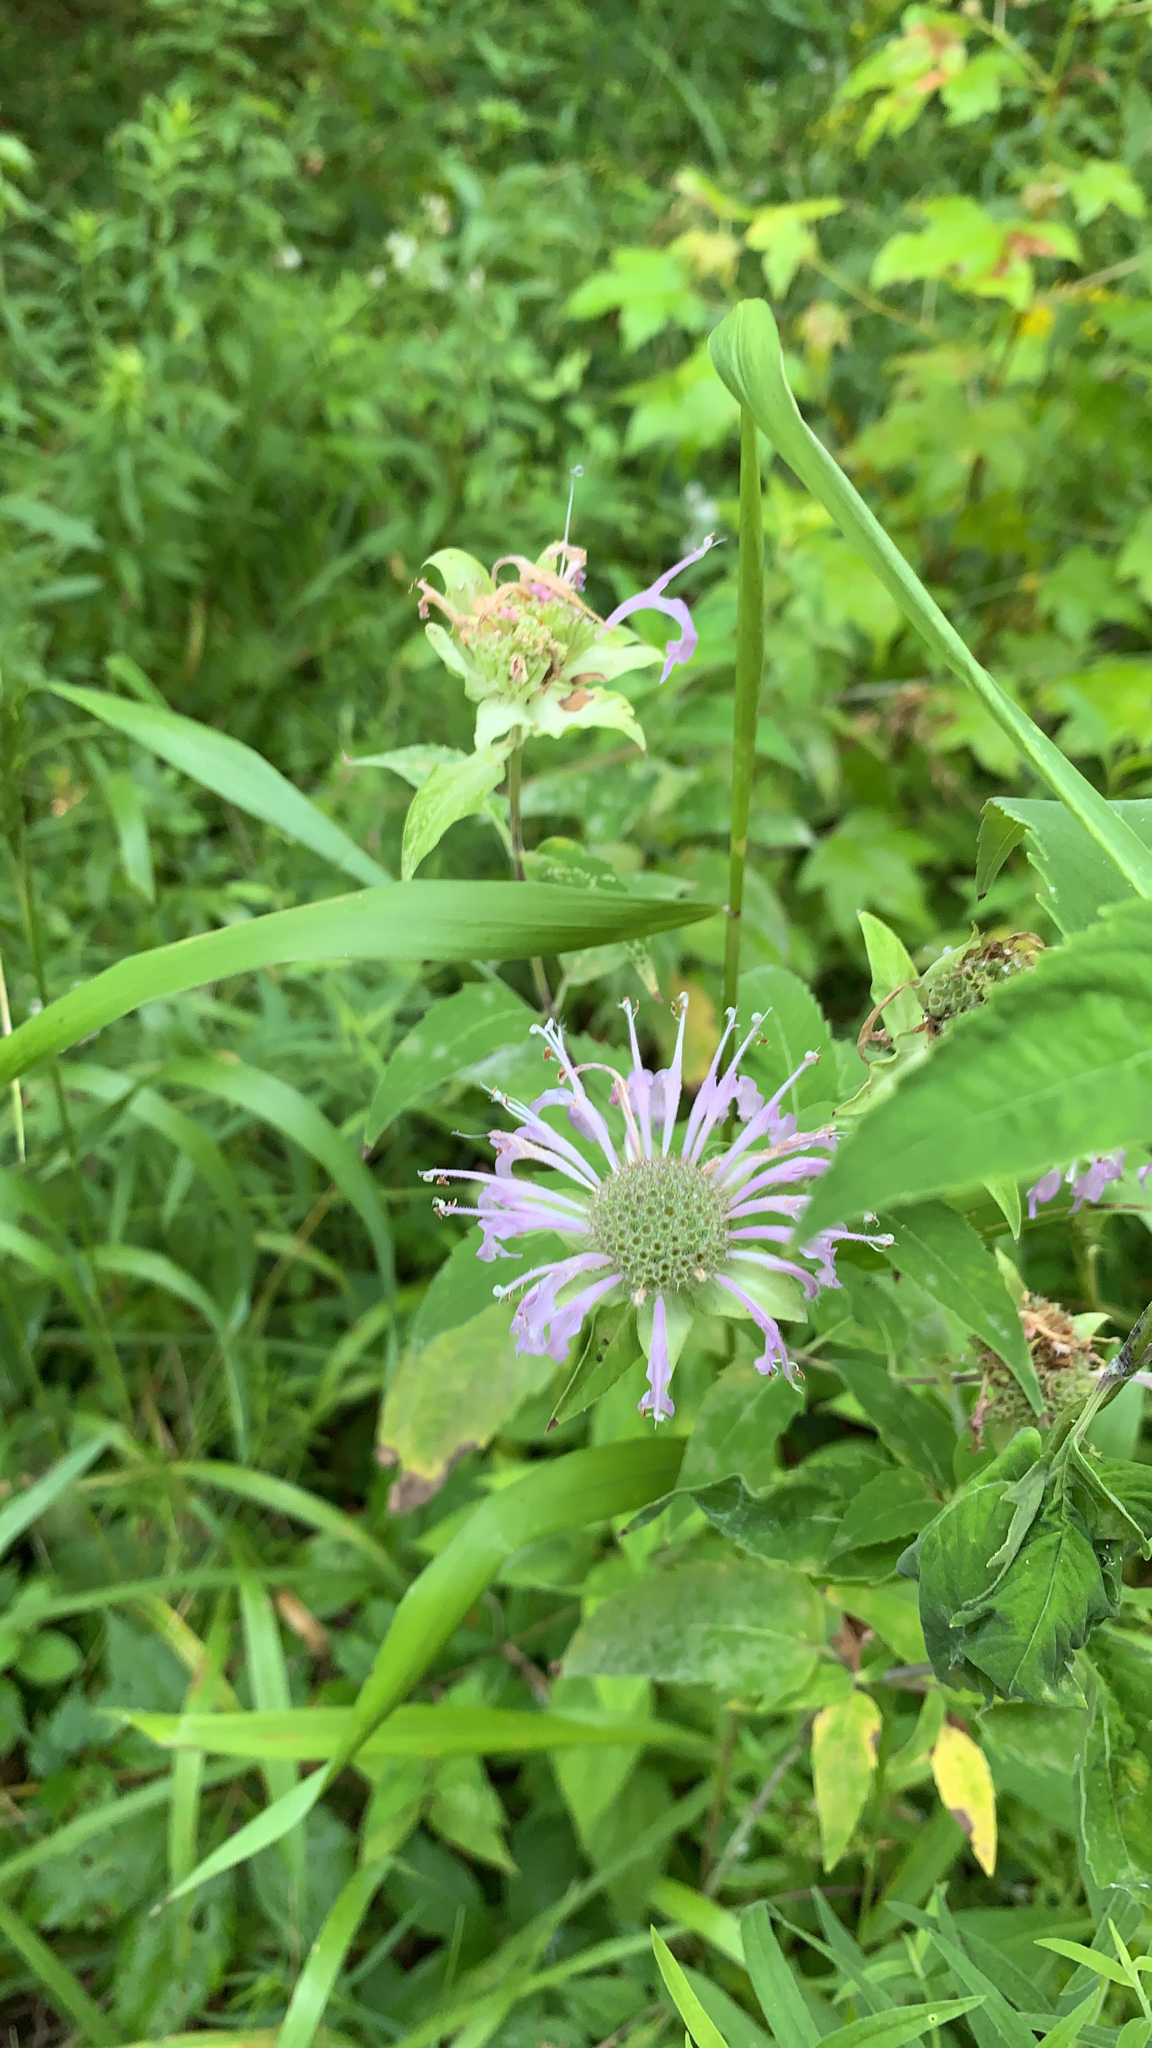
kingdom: Plantae
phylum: Tracheophyta
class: Magnoliopsida
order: Lamiales
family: Lamiaceae
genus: Monarda
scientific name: Monarda fistulosa
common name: Purple beebalm
